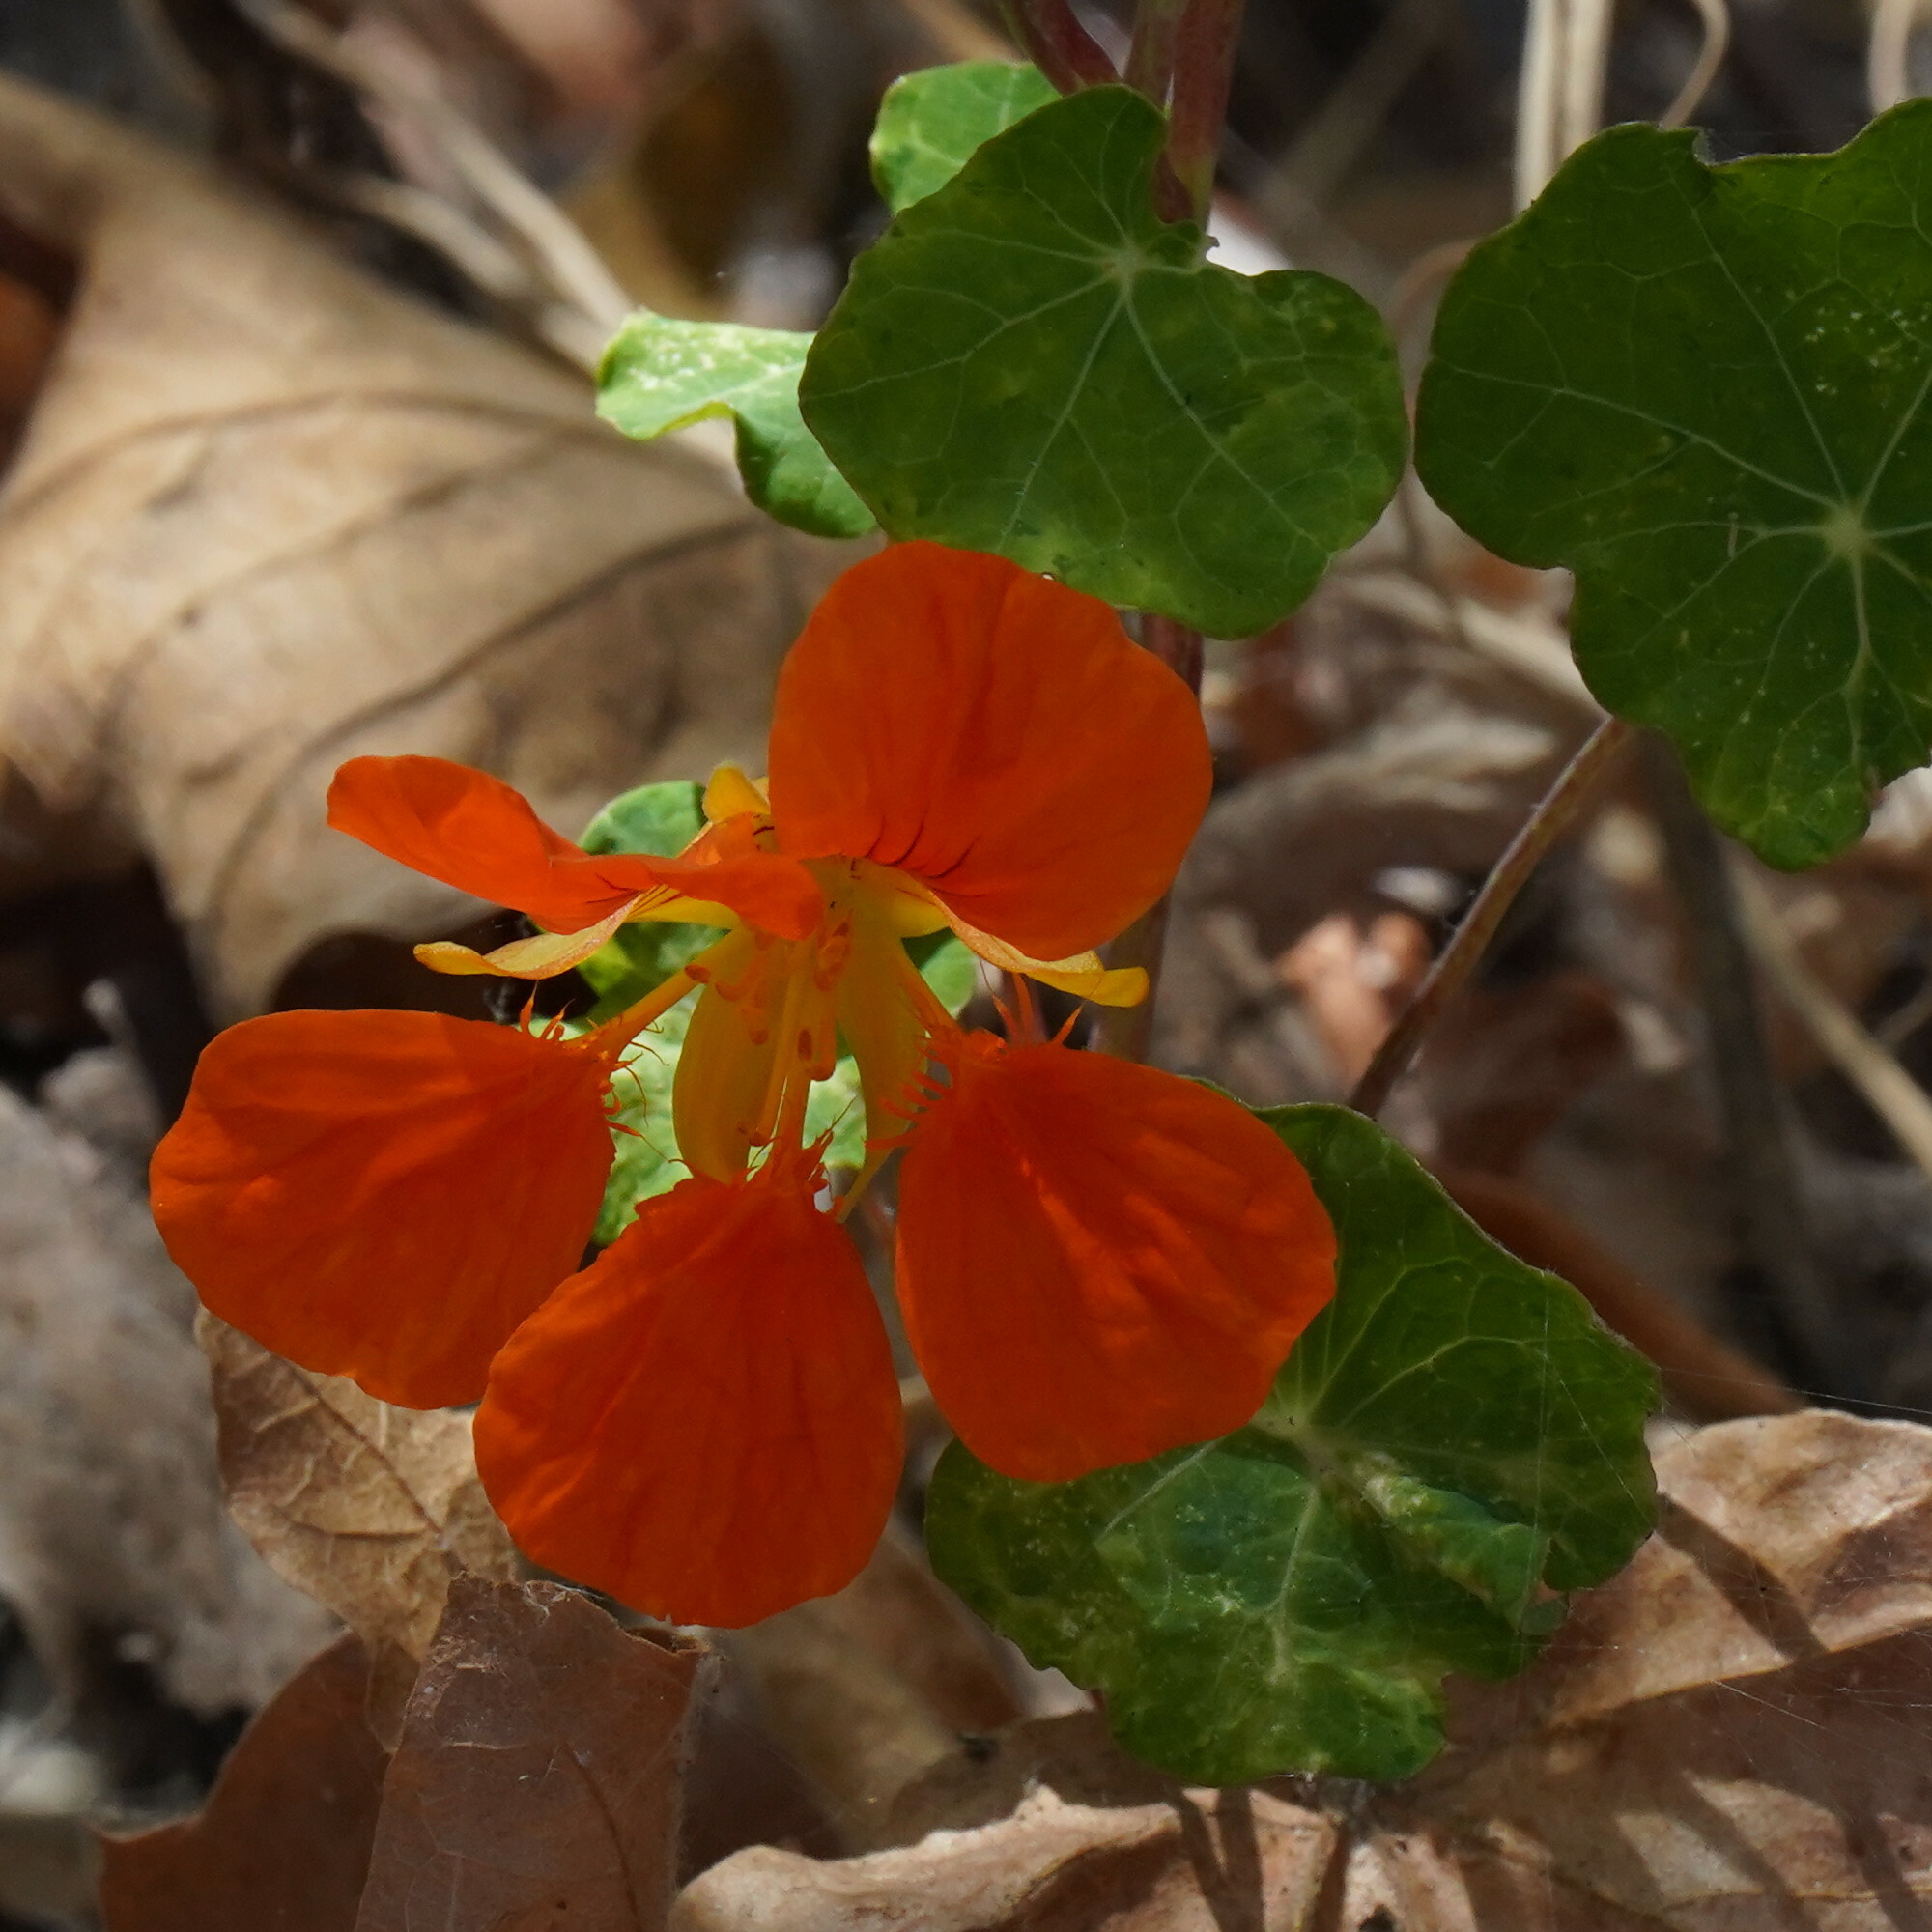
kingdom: Plantae
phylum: Tracheophyta
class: Magnoliopsida
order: Brassicales
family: Tropaeolaceae
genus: Tropaeolum
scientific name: Tropaeolum majus
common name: Nasturtium
